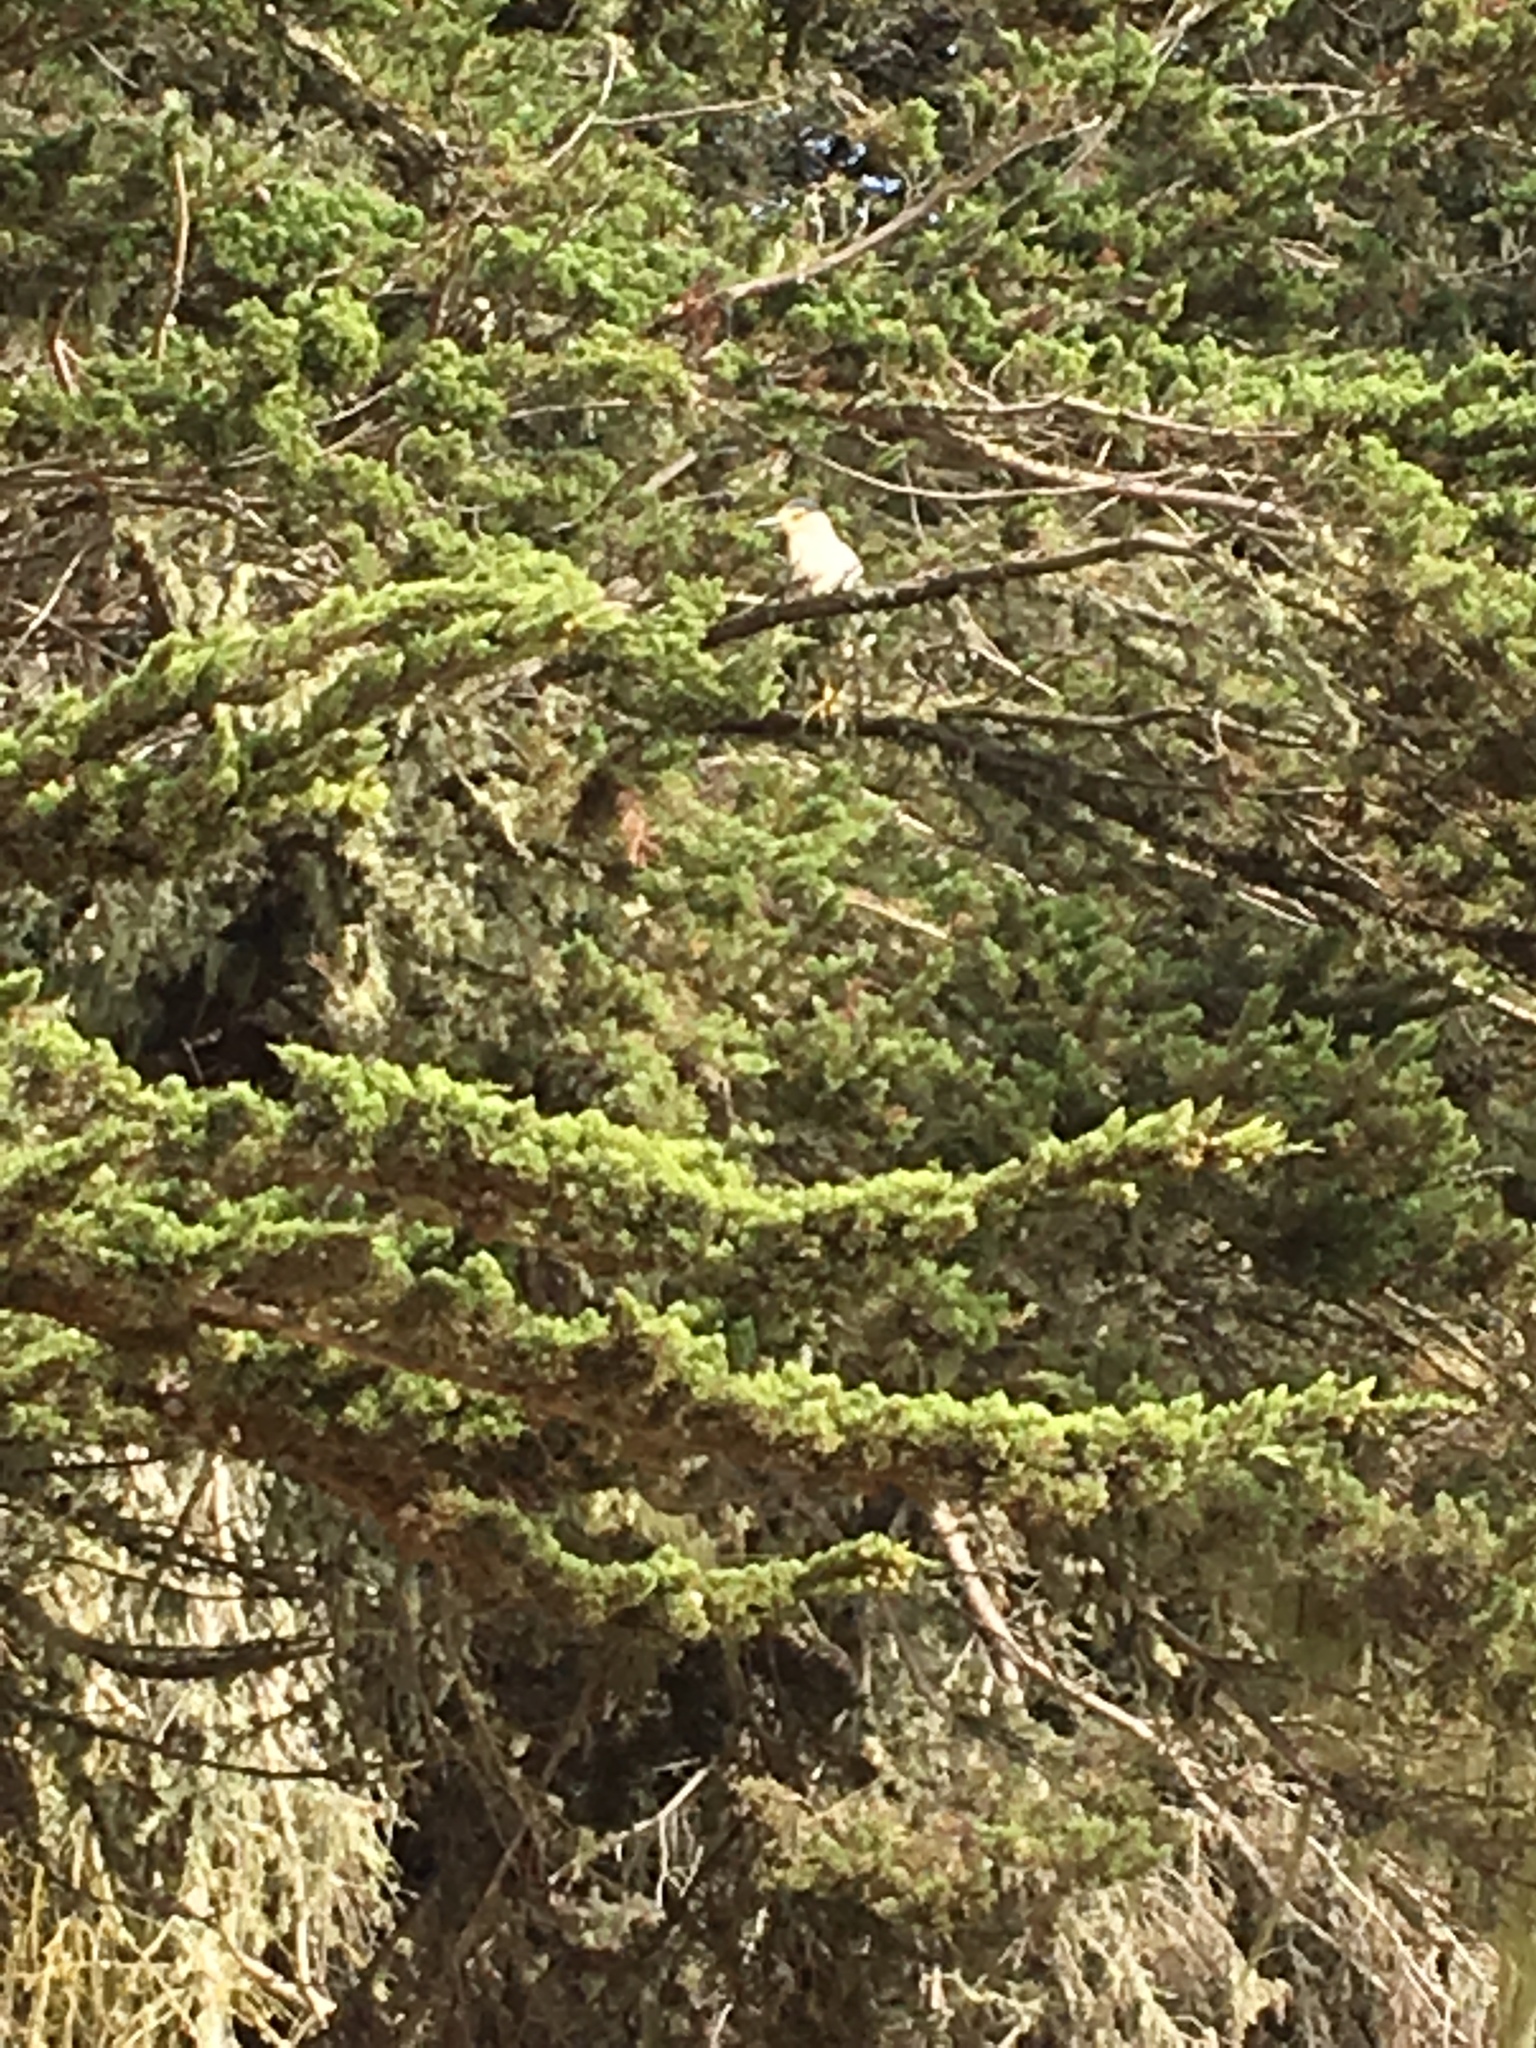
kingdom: Animalia
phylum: Chordata
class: Aves
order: Pelecaniformes
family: Ardeidae
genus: Nycticorax
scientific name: Nycticorax nycticorax
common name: Black-crowned night heron
